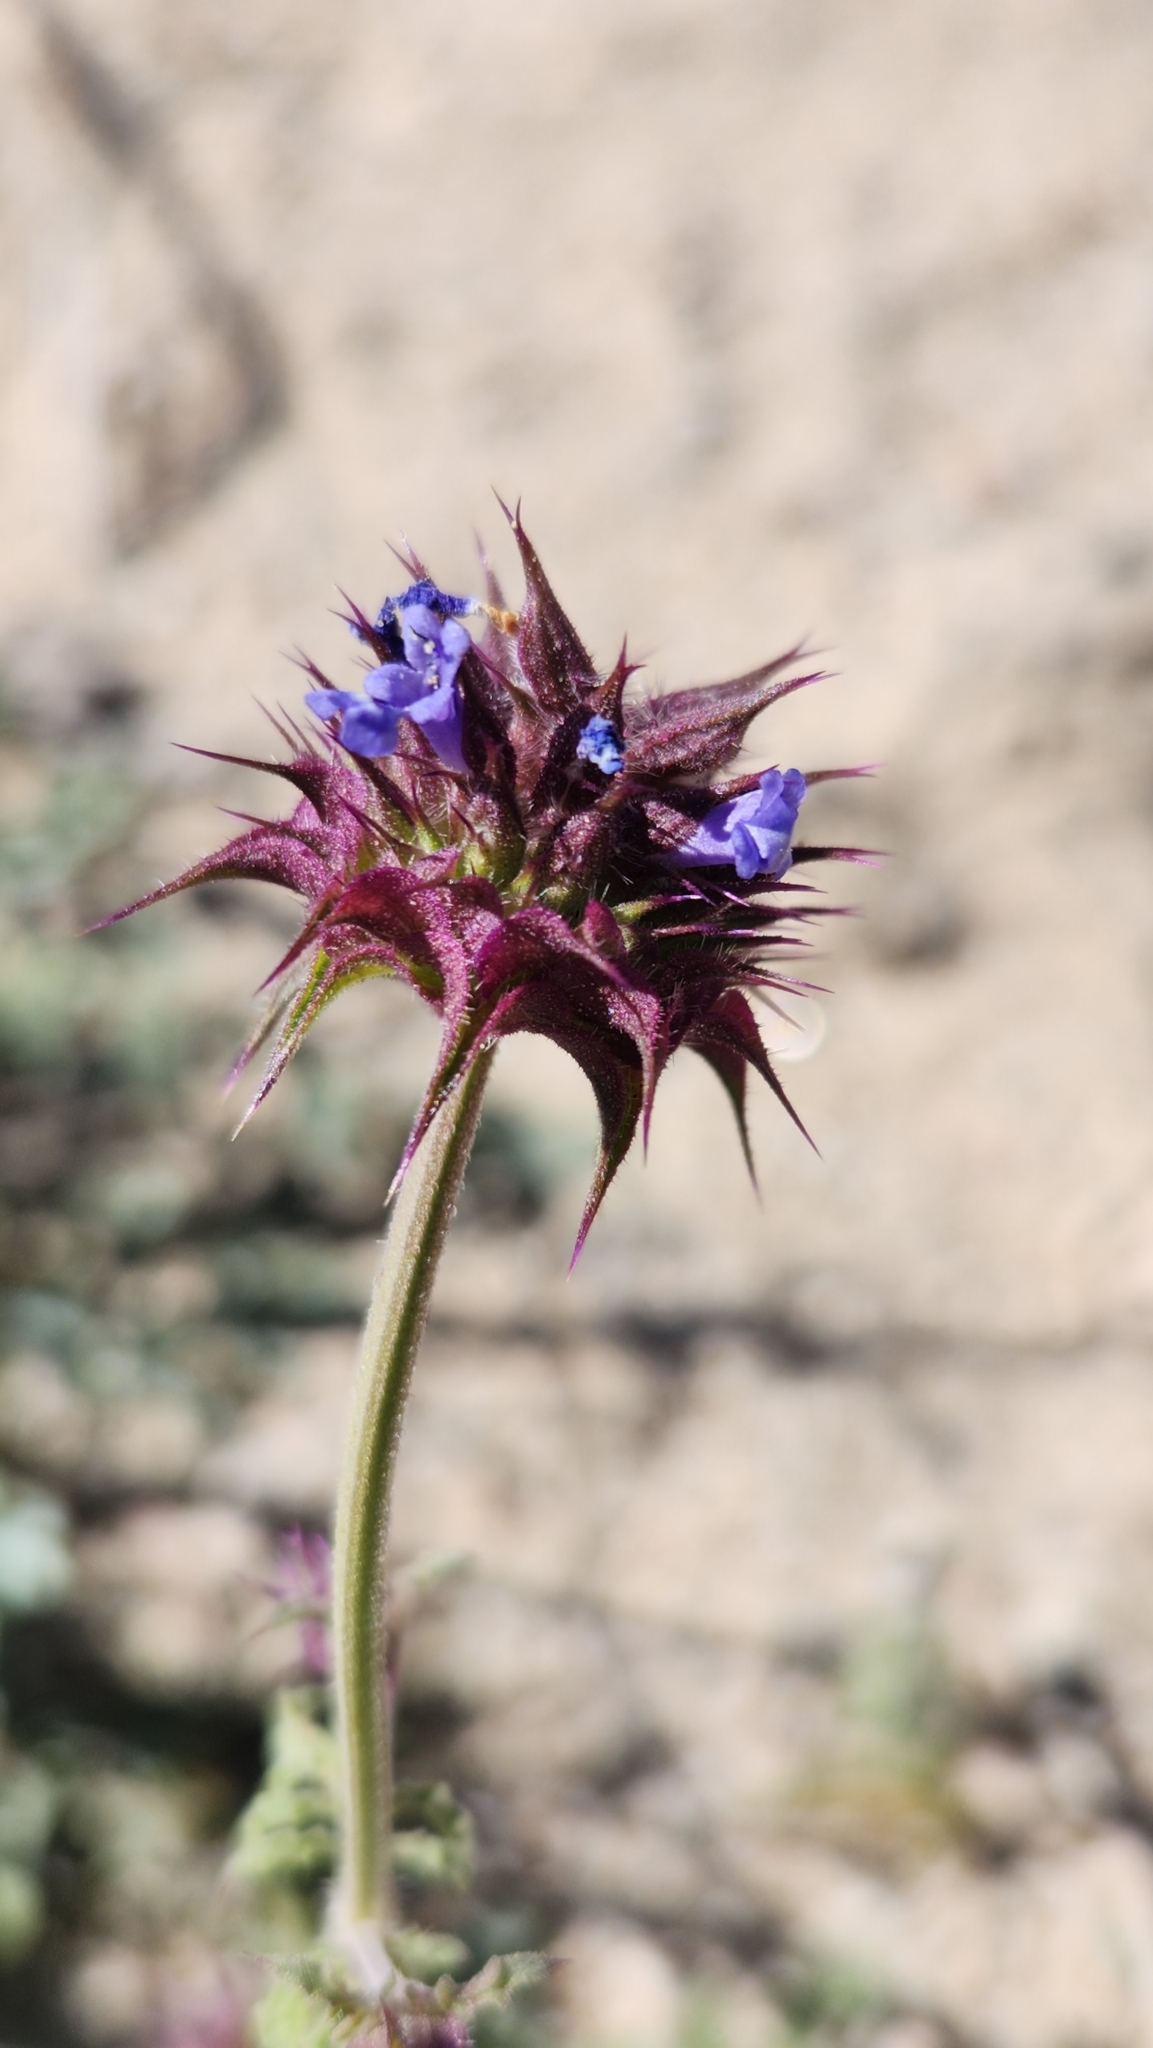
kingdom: Plantae
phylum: Tracheophyta
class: Magnoliopsida
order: Lamiales
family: Lamiaceae
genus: Salvia
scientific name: Salvia columbariae
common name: Chia
